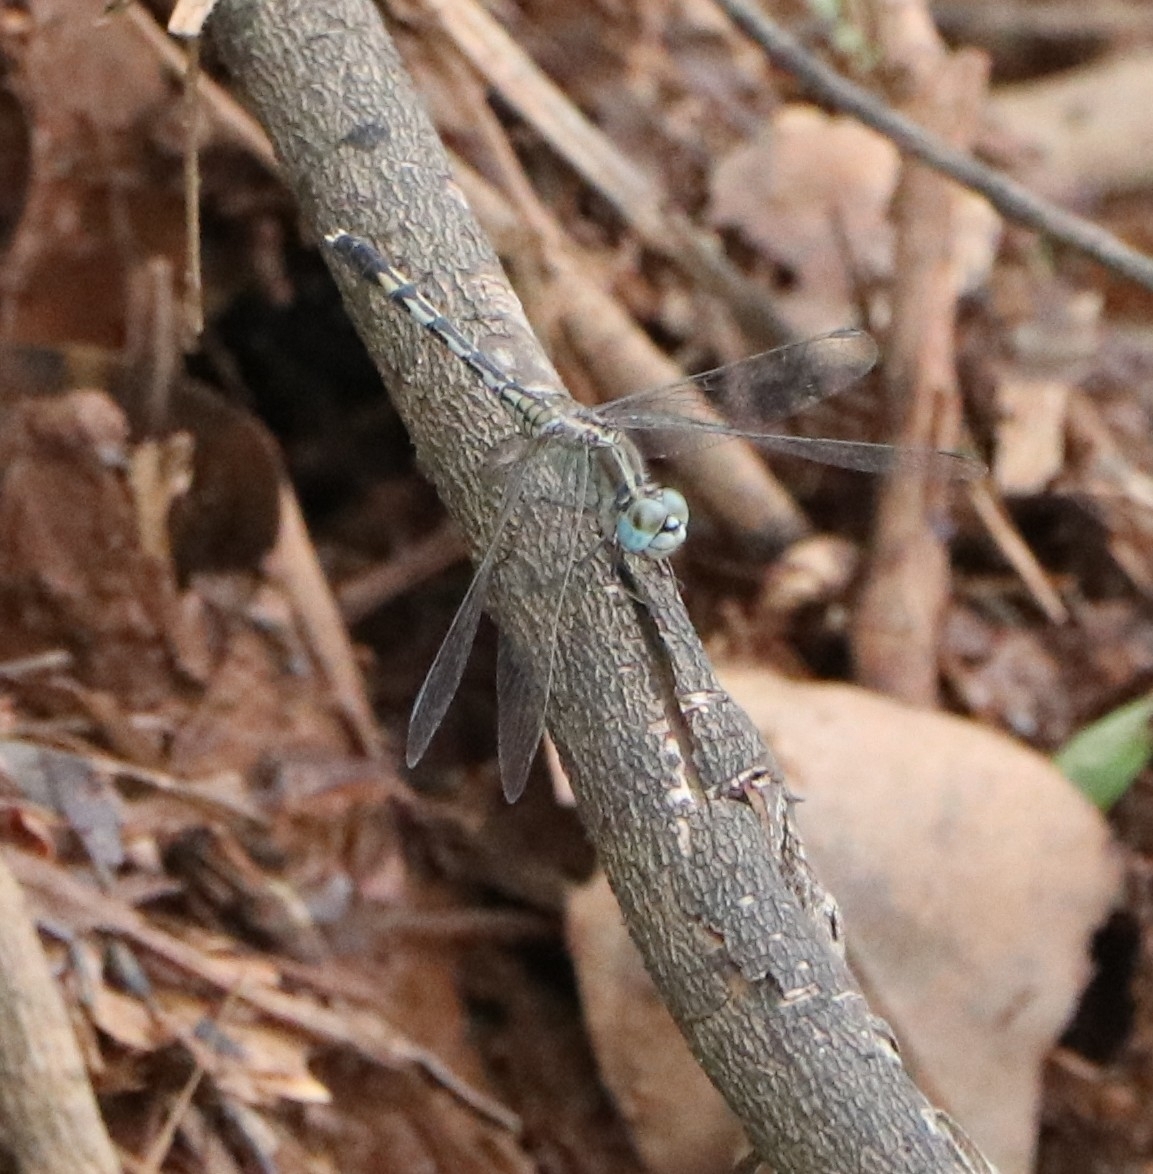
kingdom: Animalia
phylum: Arthropoda
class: Insecta
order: Odonata
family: Libellulidae
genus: Diplacodes
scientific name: Diplacodes trivialis
